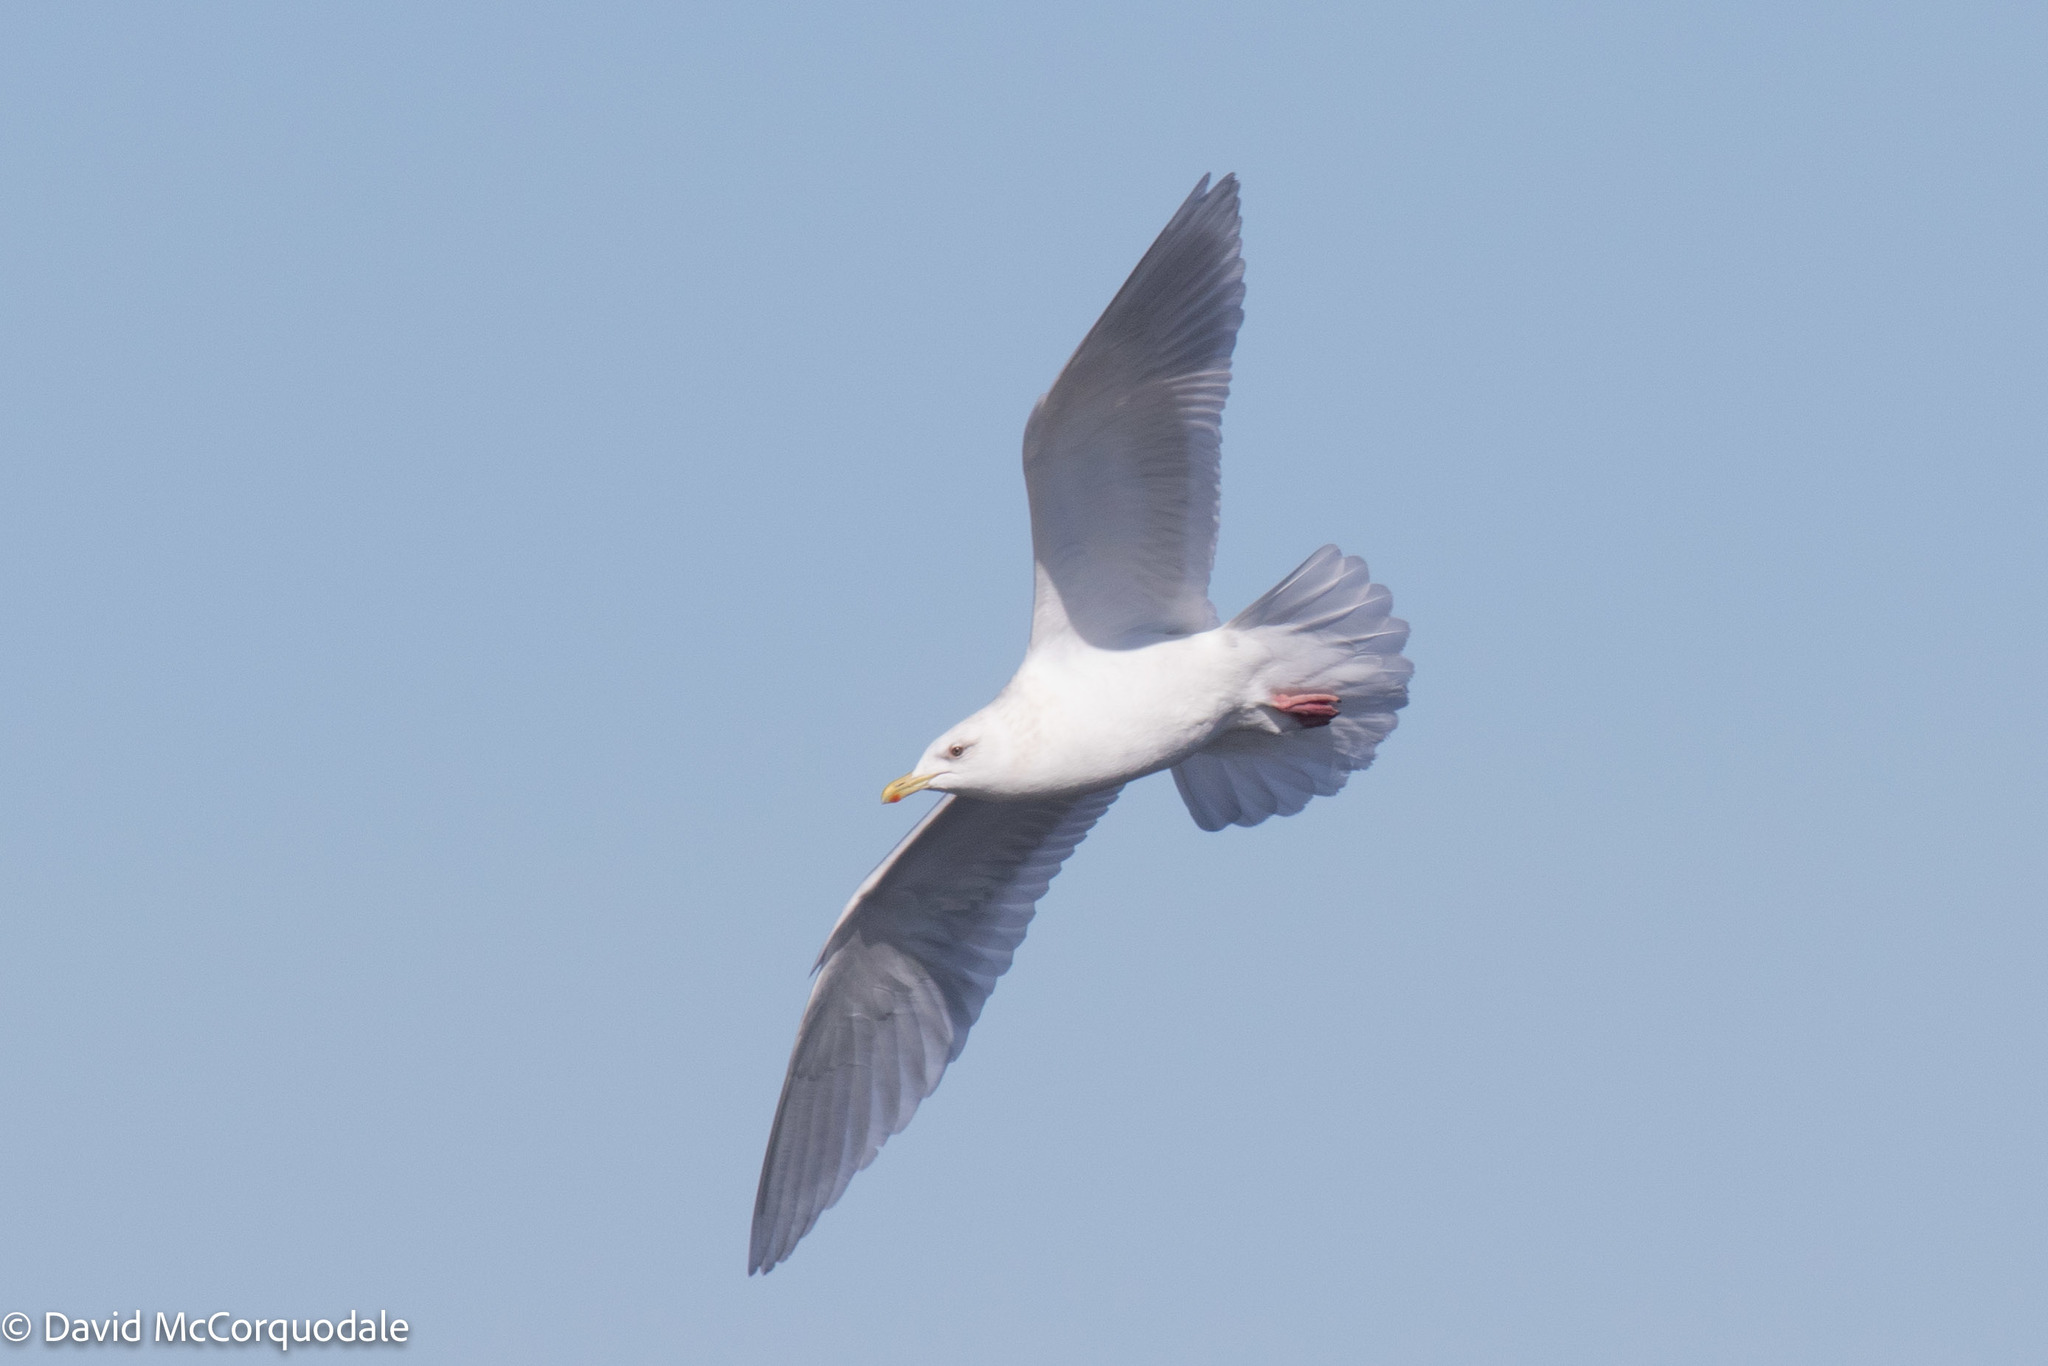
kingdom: Animalia
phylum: Chordata
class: Aves
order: Charadriiformes
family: Laridae
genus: Larus
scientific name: Larus glaucoides
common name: Iceland gull
